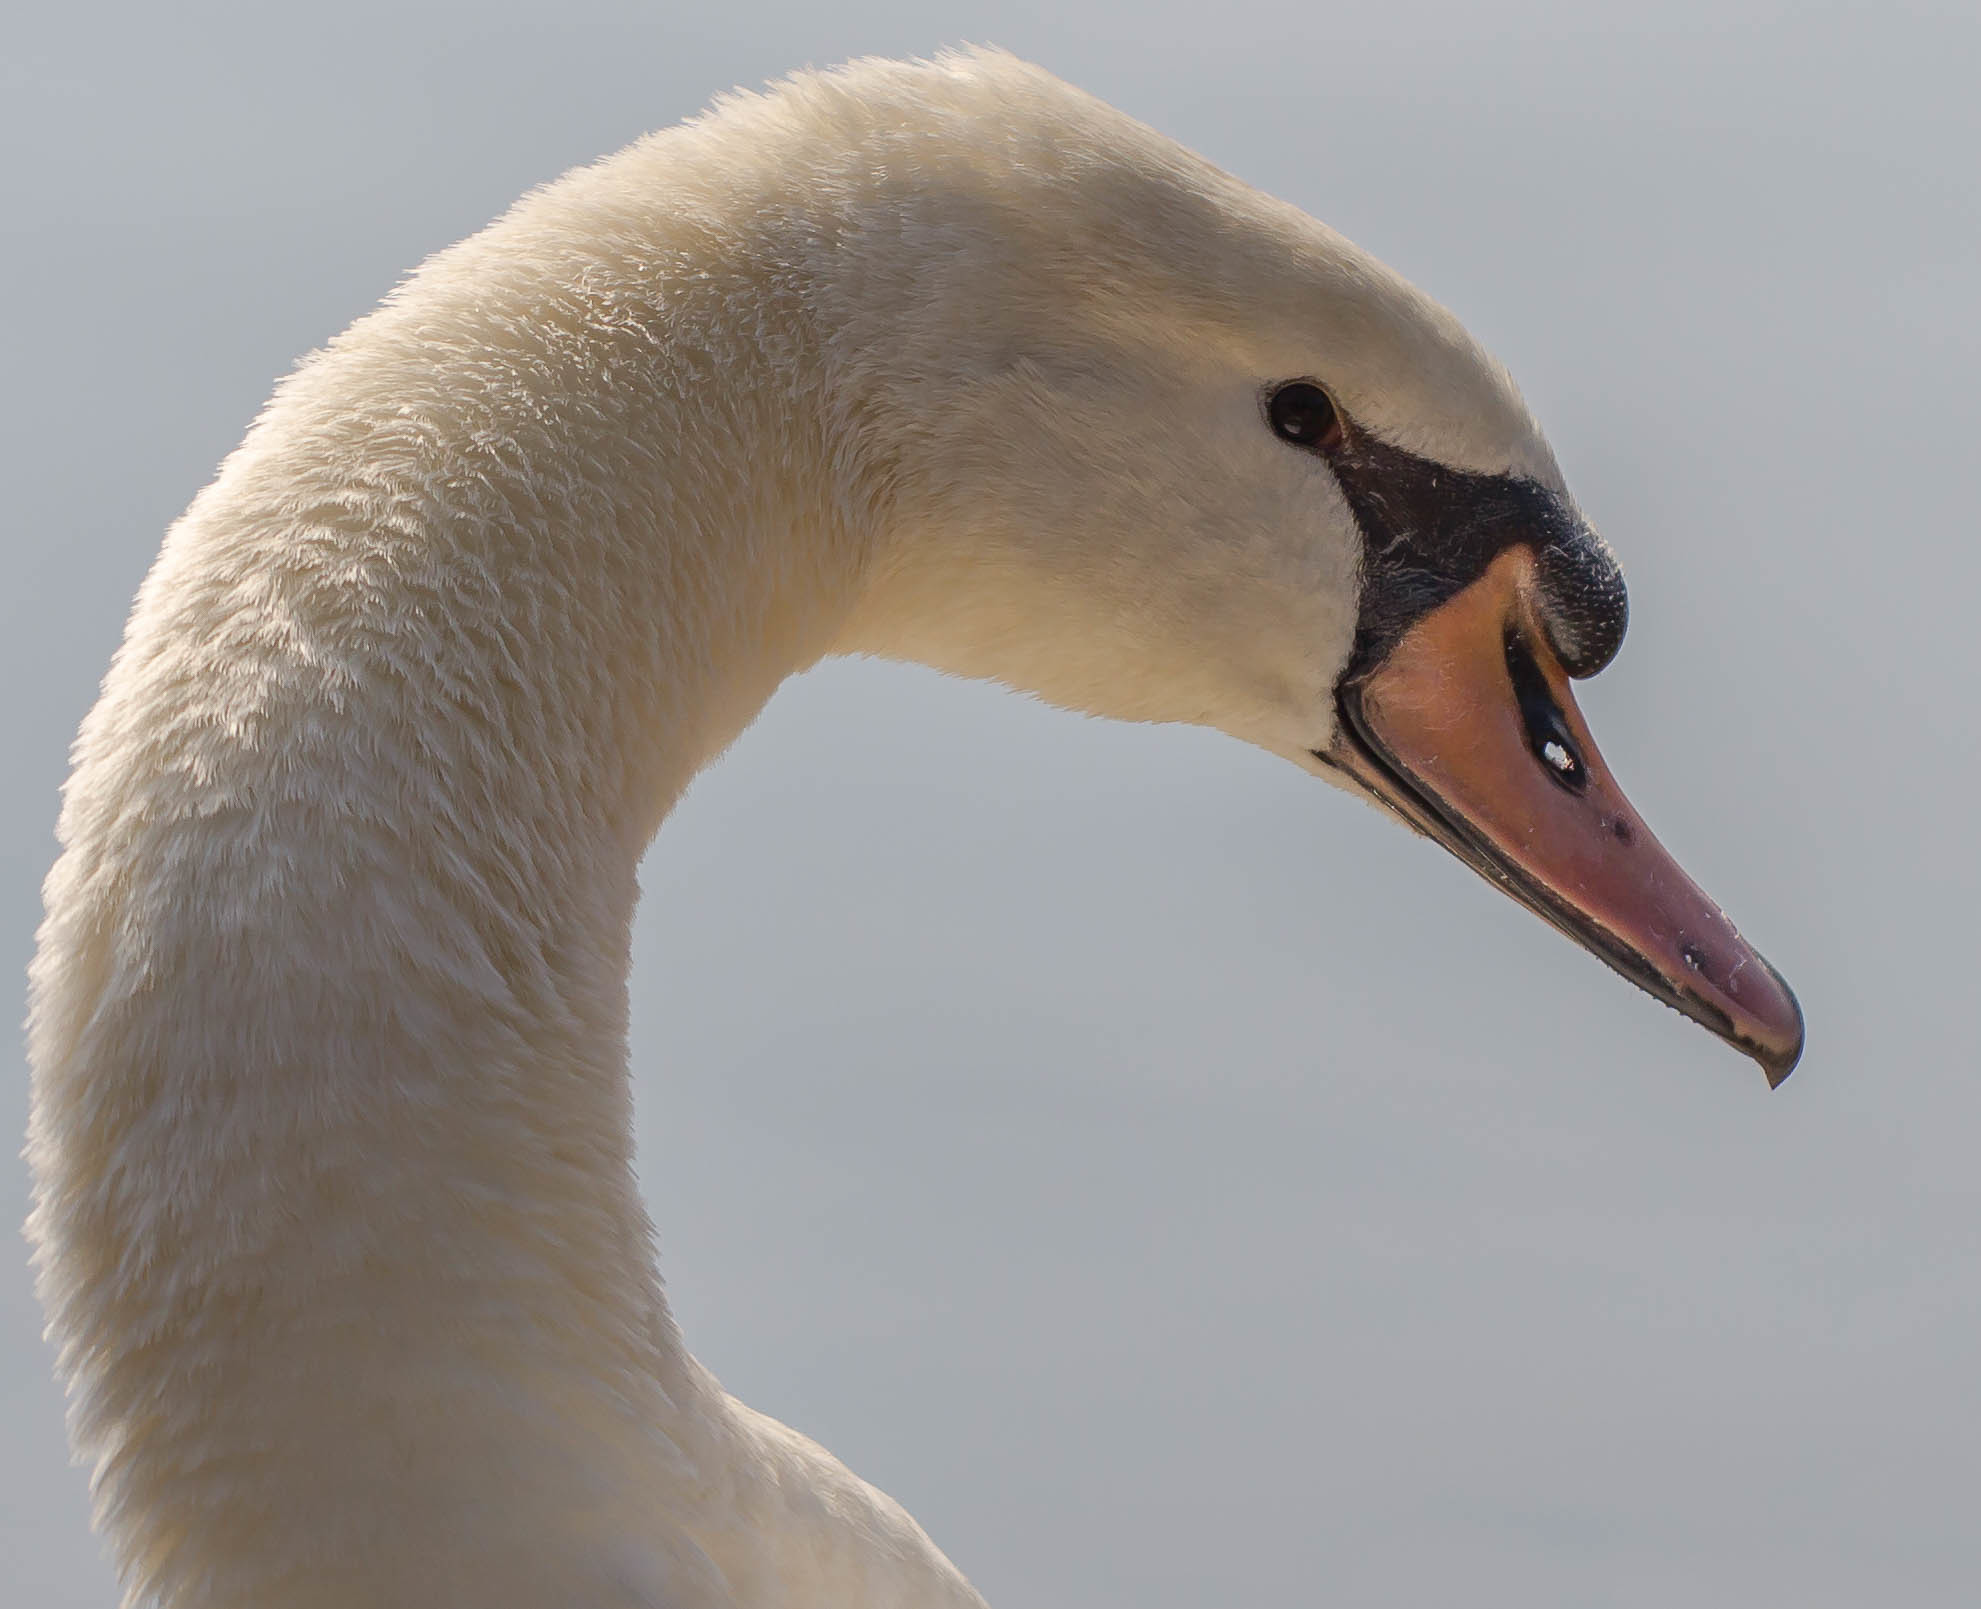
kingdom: Animalia
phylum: Chordata
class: Aves
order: Anseriformes
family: Anatidae
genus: Cygnus
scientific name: Cygnus olor
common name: Mute swan
